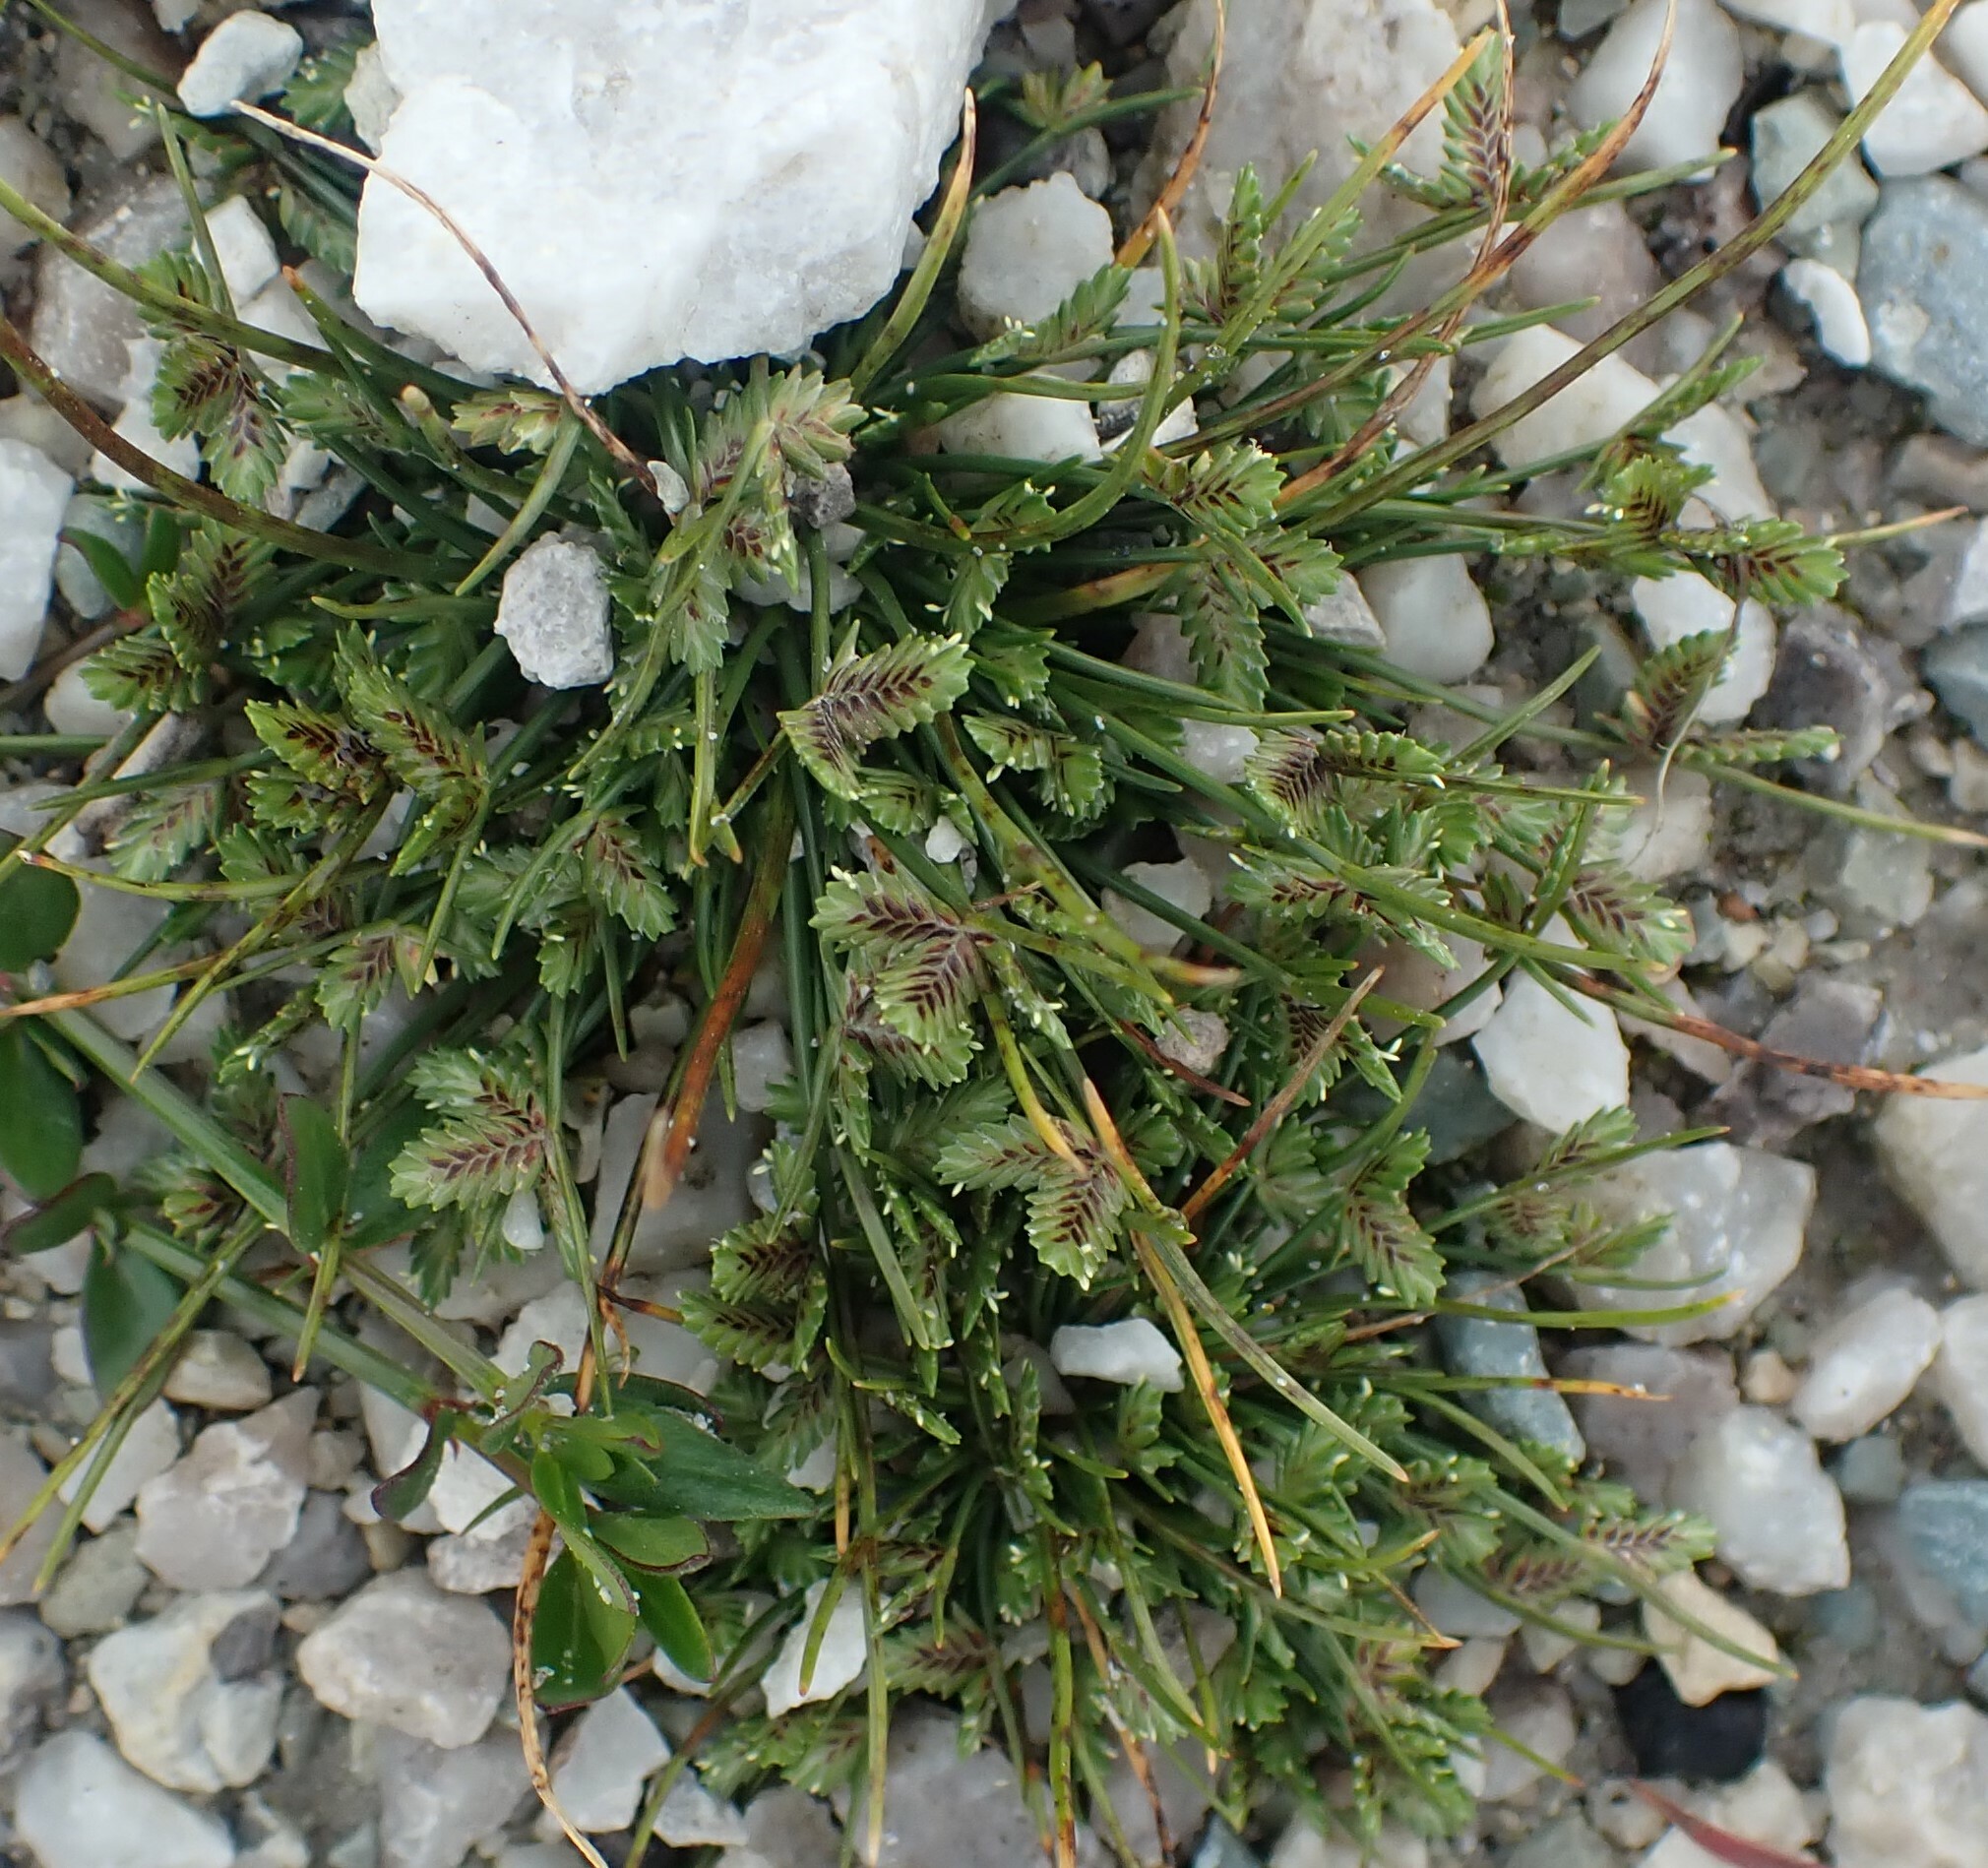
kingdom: Plantae
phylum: Tracheophyta
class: Liliopsida
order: Poales
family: Cyperaceae
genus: Isolepis
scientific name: Isolepis levynsiana
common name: Sedge
